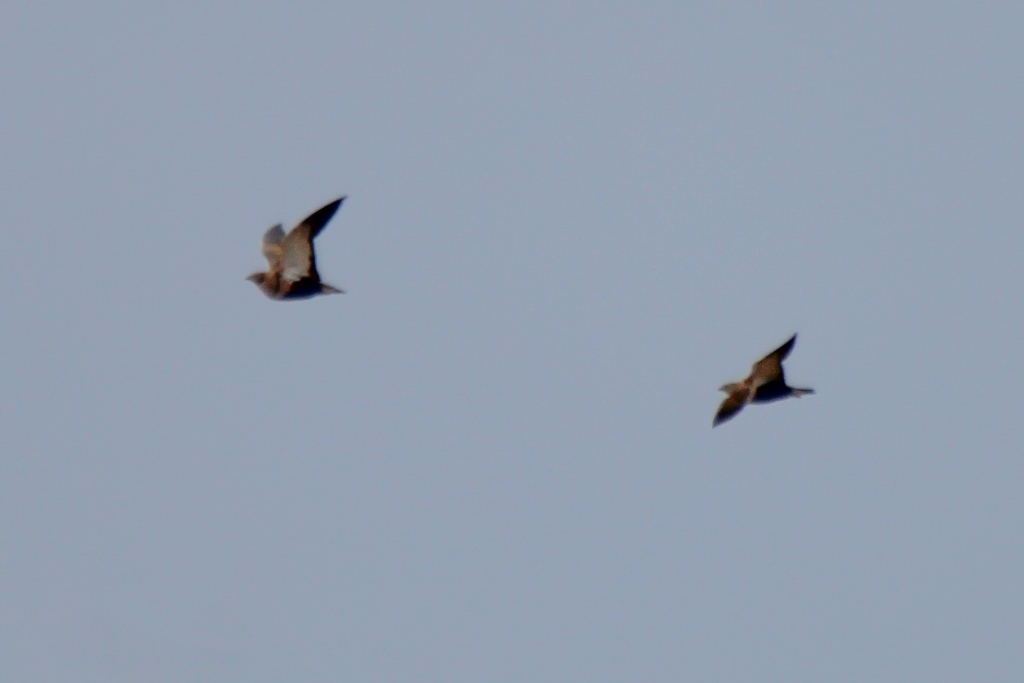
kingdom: Animalia
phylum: Chordata
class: Aves
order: Pteroclidiformes
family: Pteroclididae
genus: Pterocles
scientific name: Pterocles orientalis
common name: Black-bellied sandgrouse
